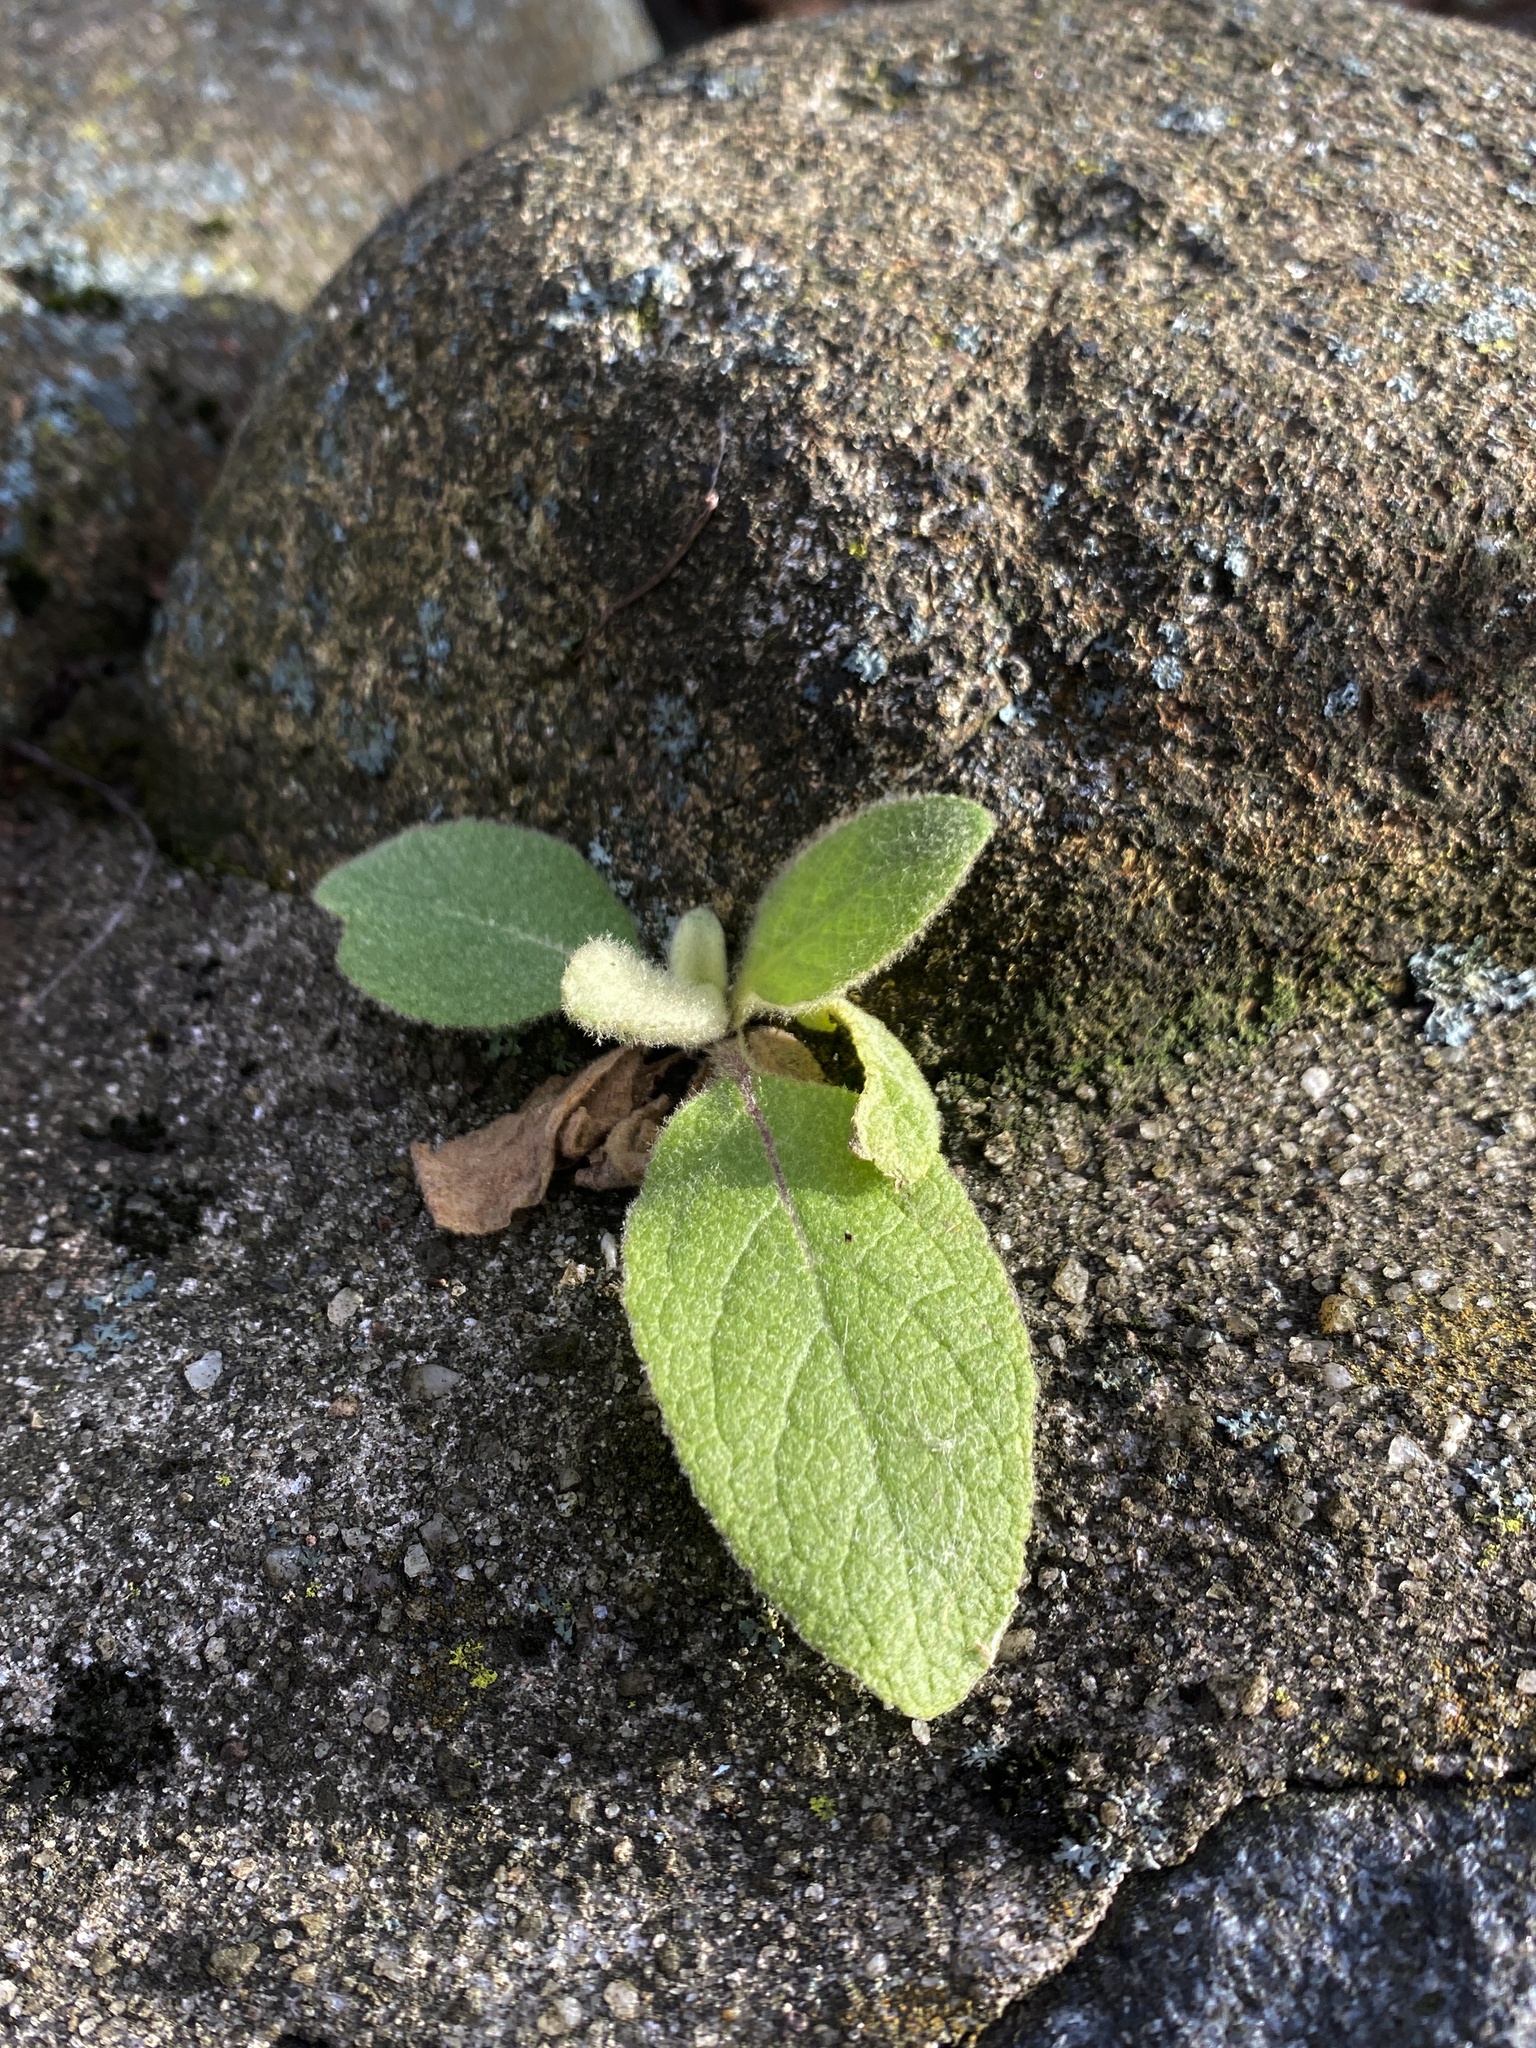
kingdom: Plantae
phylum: Tracheophyta
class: Magnoliopsida
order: Lamiales
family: Scrophulariaceae
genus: Verbascum
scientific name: Verbascum thapsus
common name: Common mullein
